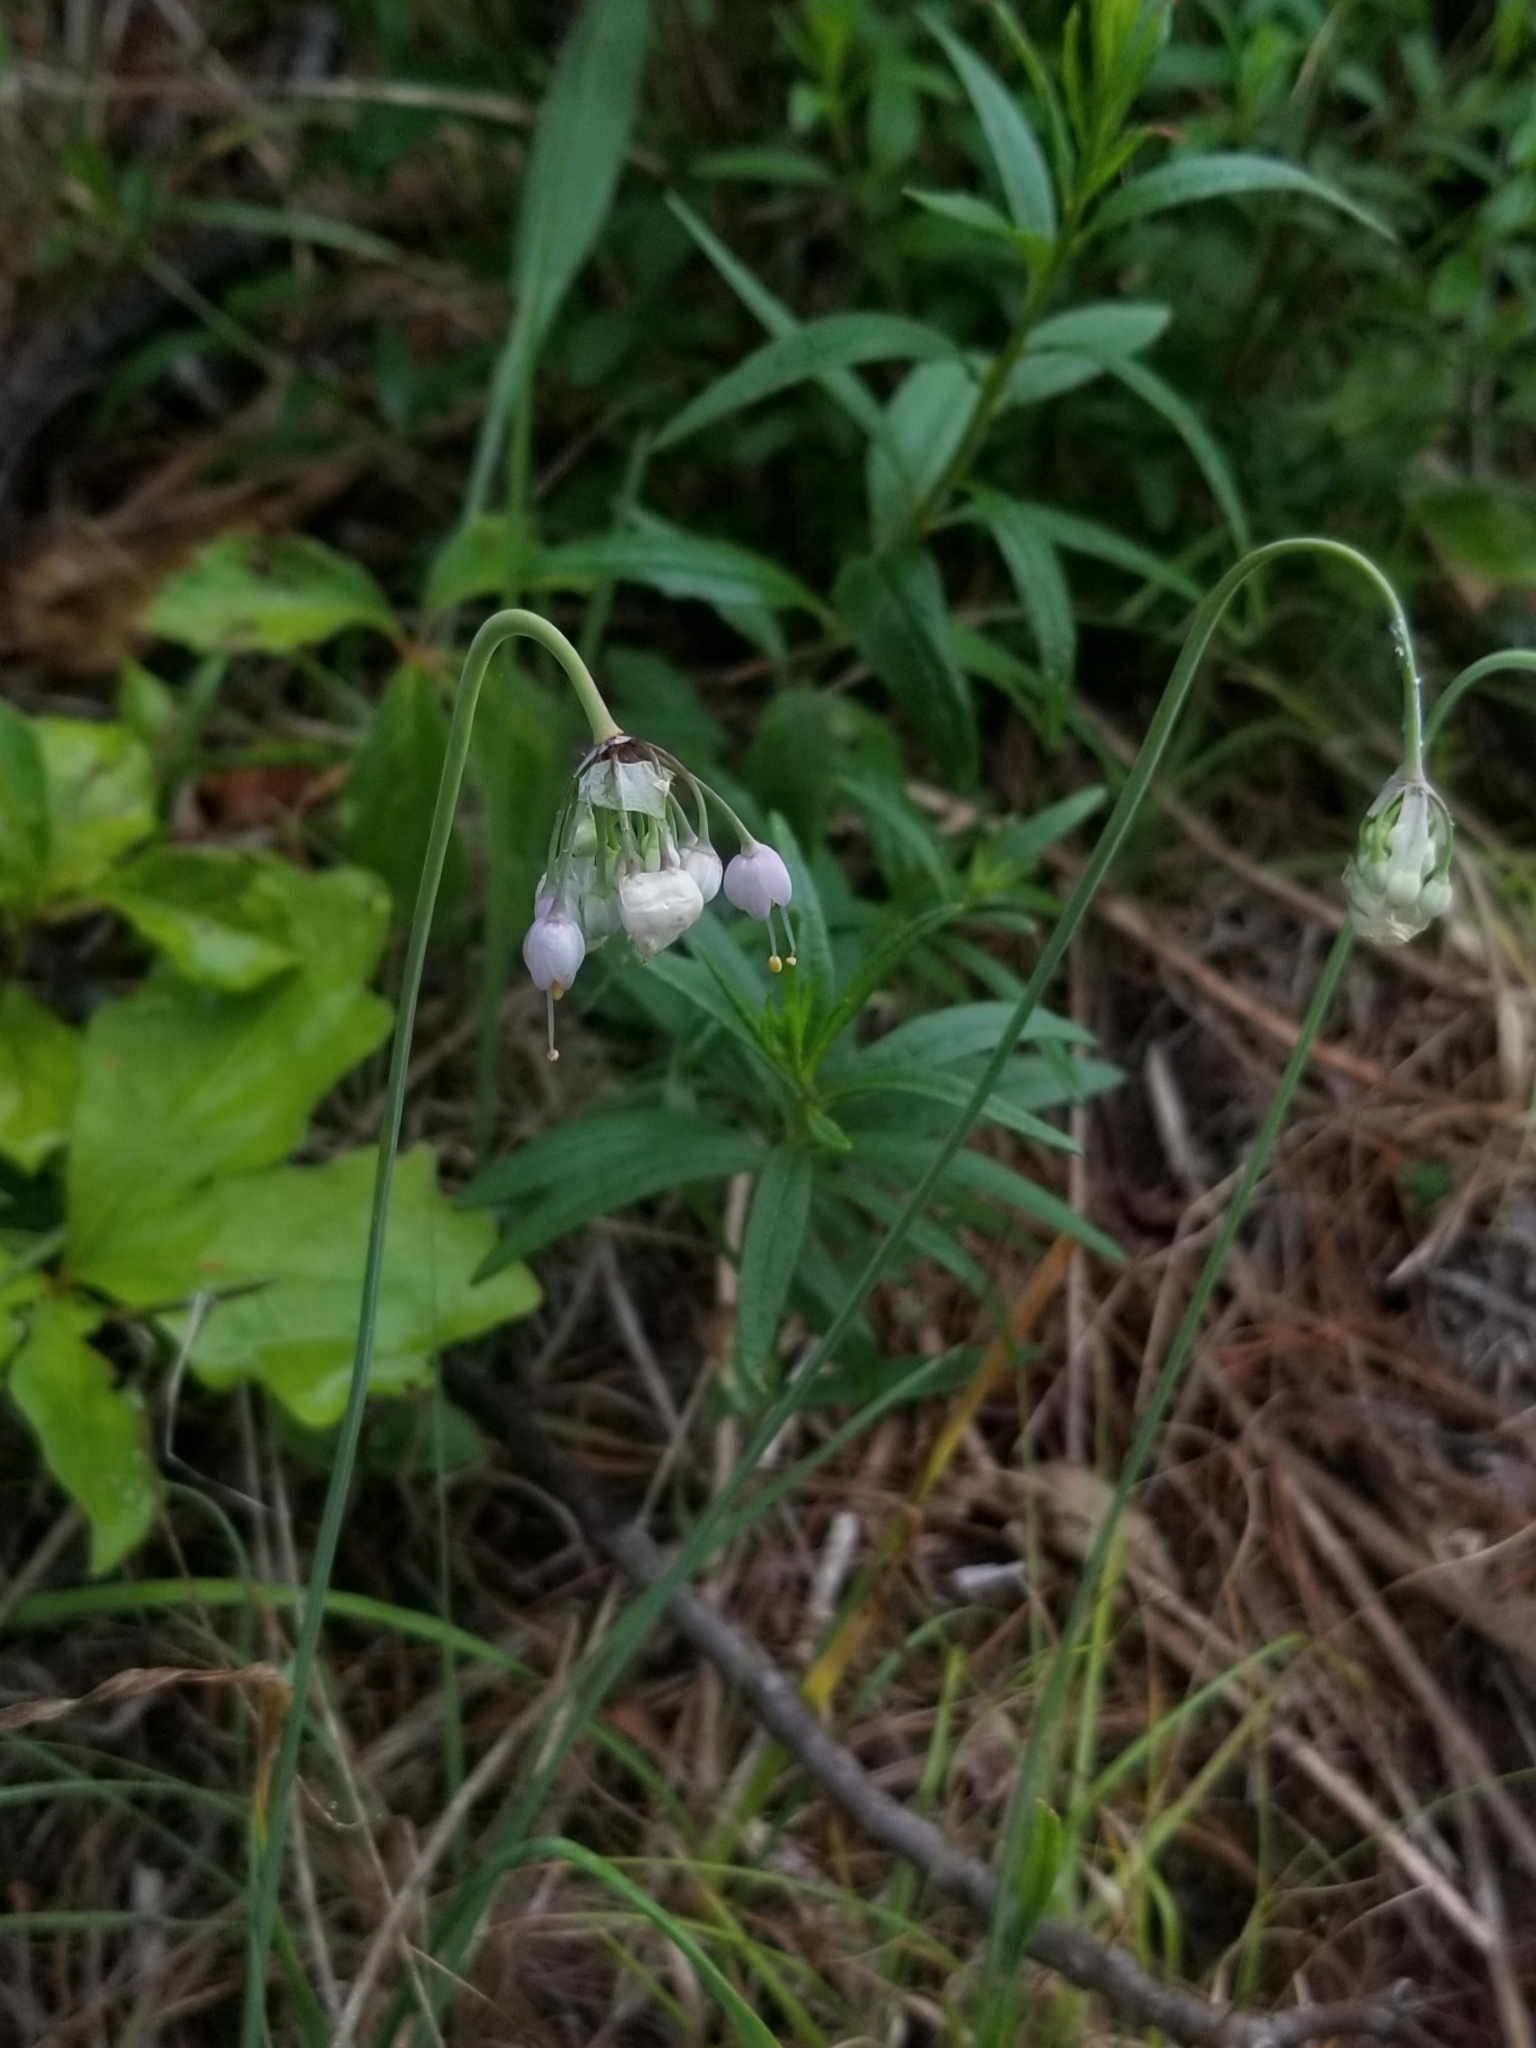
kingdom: Plantae
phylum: Tracheophyta
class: Liliopsida
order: Asparagales
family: Amaryllidaceae
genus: Allium
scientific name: Allium cernuum
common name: Nodding onion
